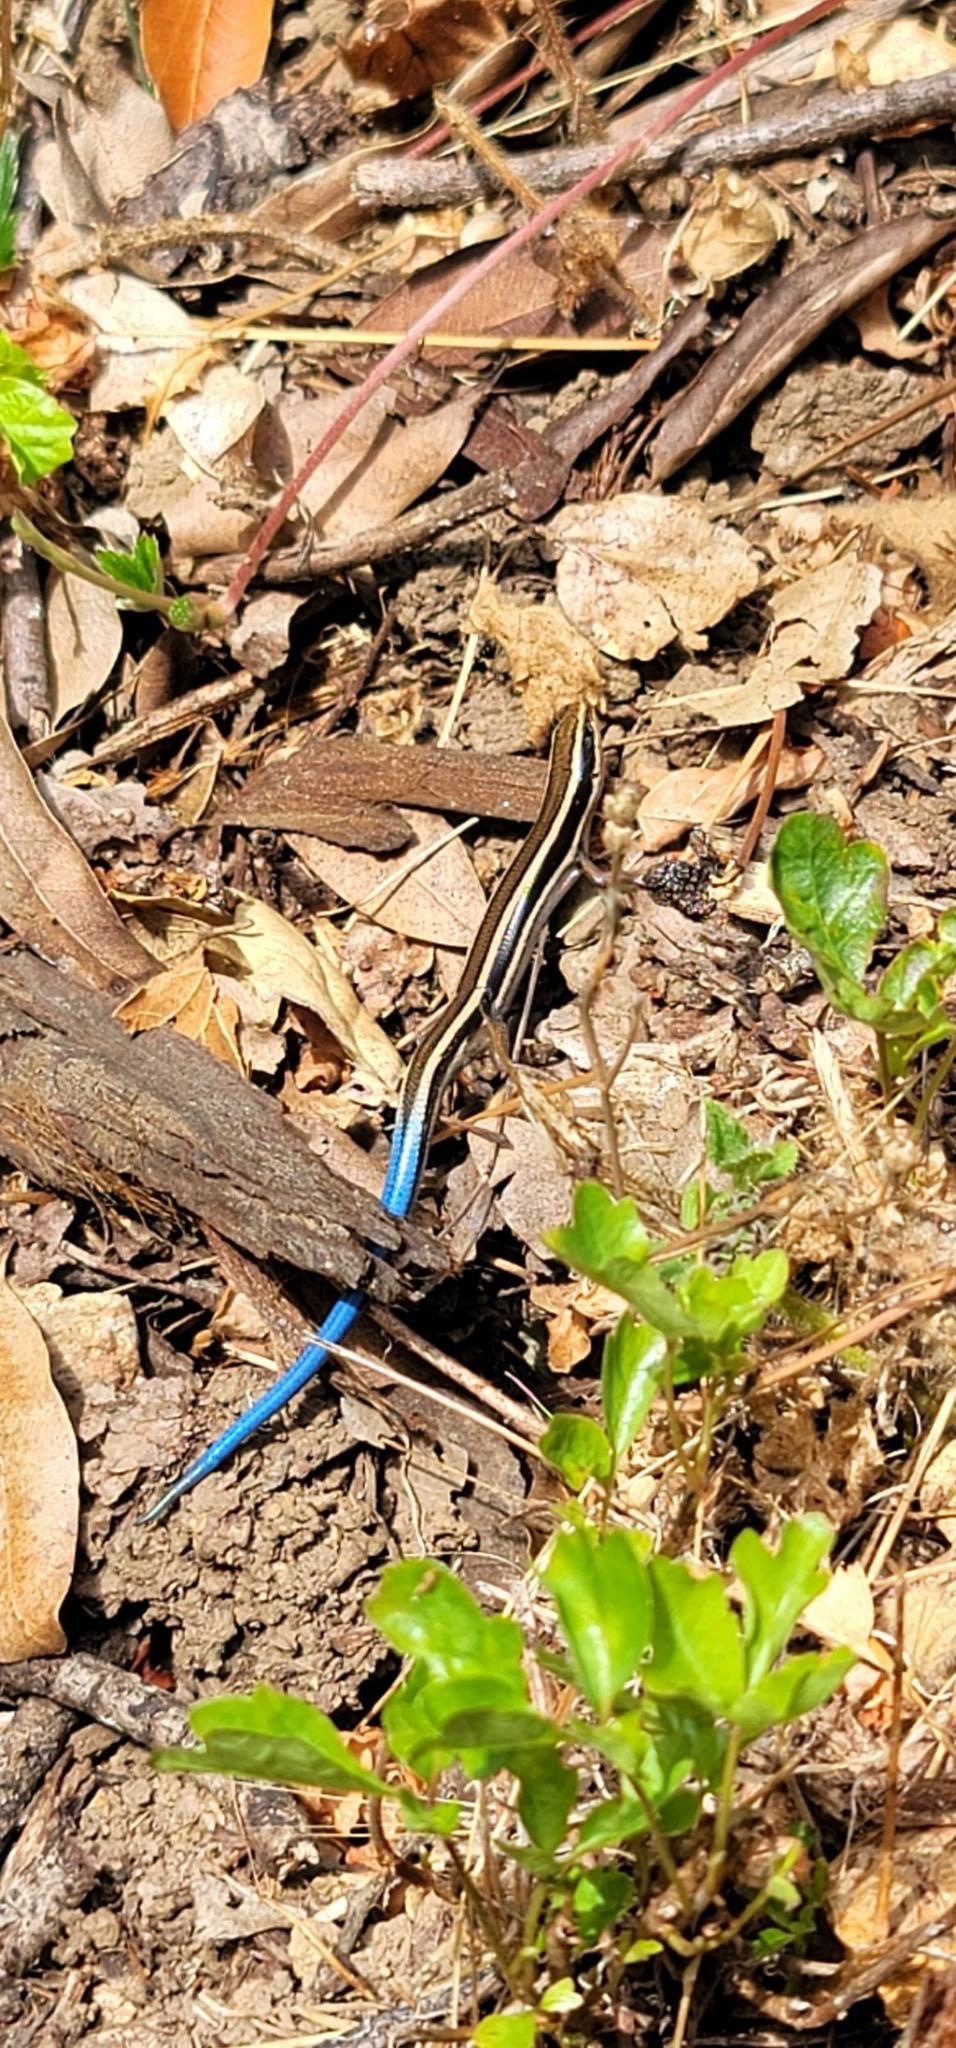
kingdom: Animalia
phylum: Chordata
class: Squamata
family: Scincidae
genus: Plestiodon
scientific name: Plestiodon skiltonianus
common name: Coronado island skink [interparietalis]
